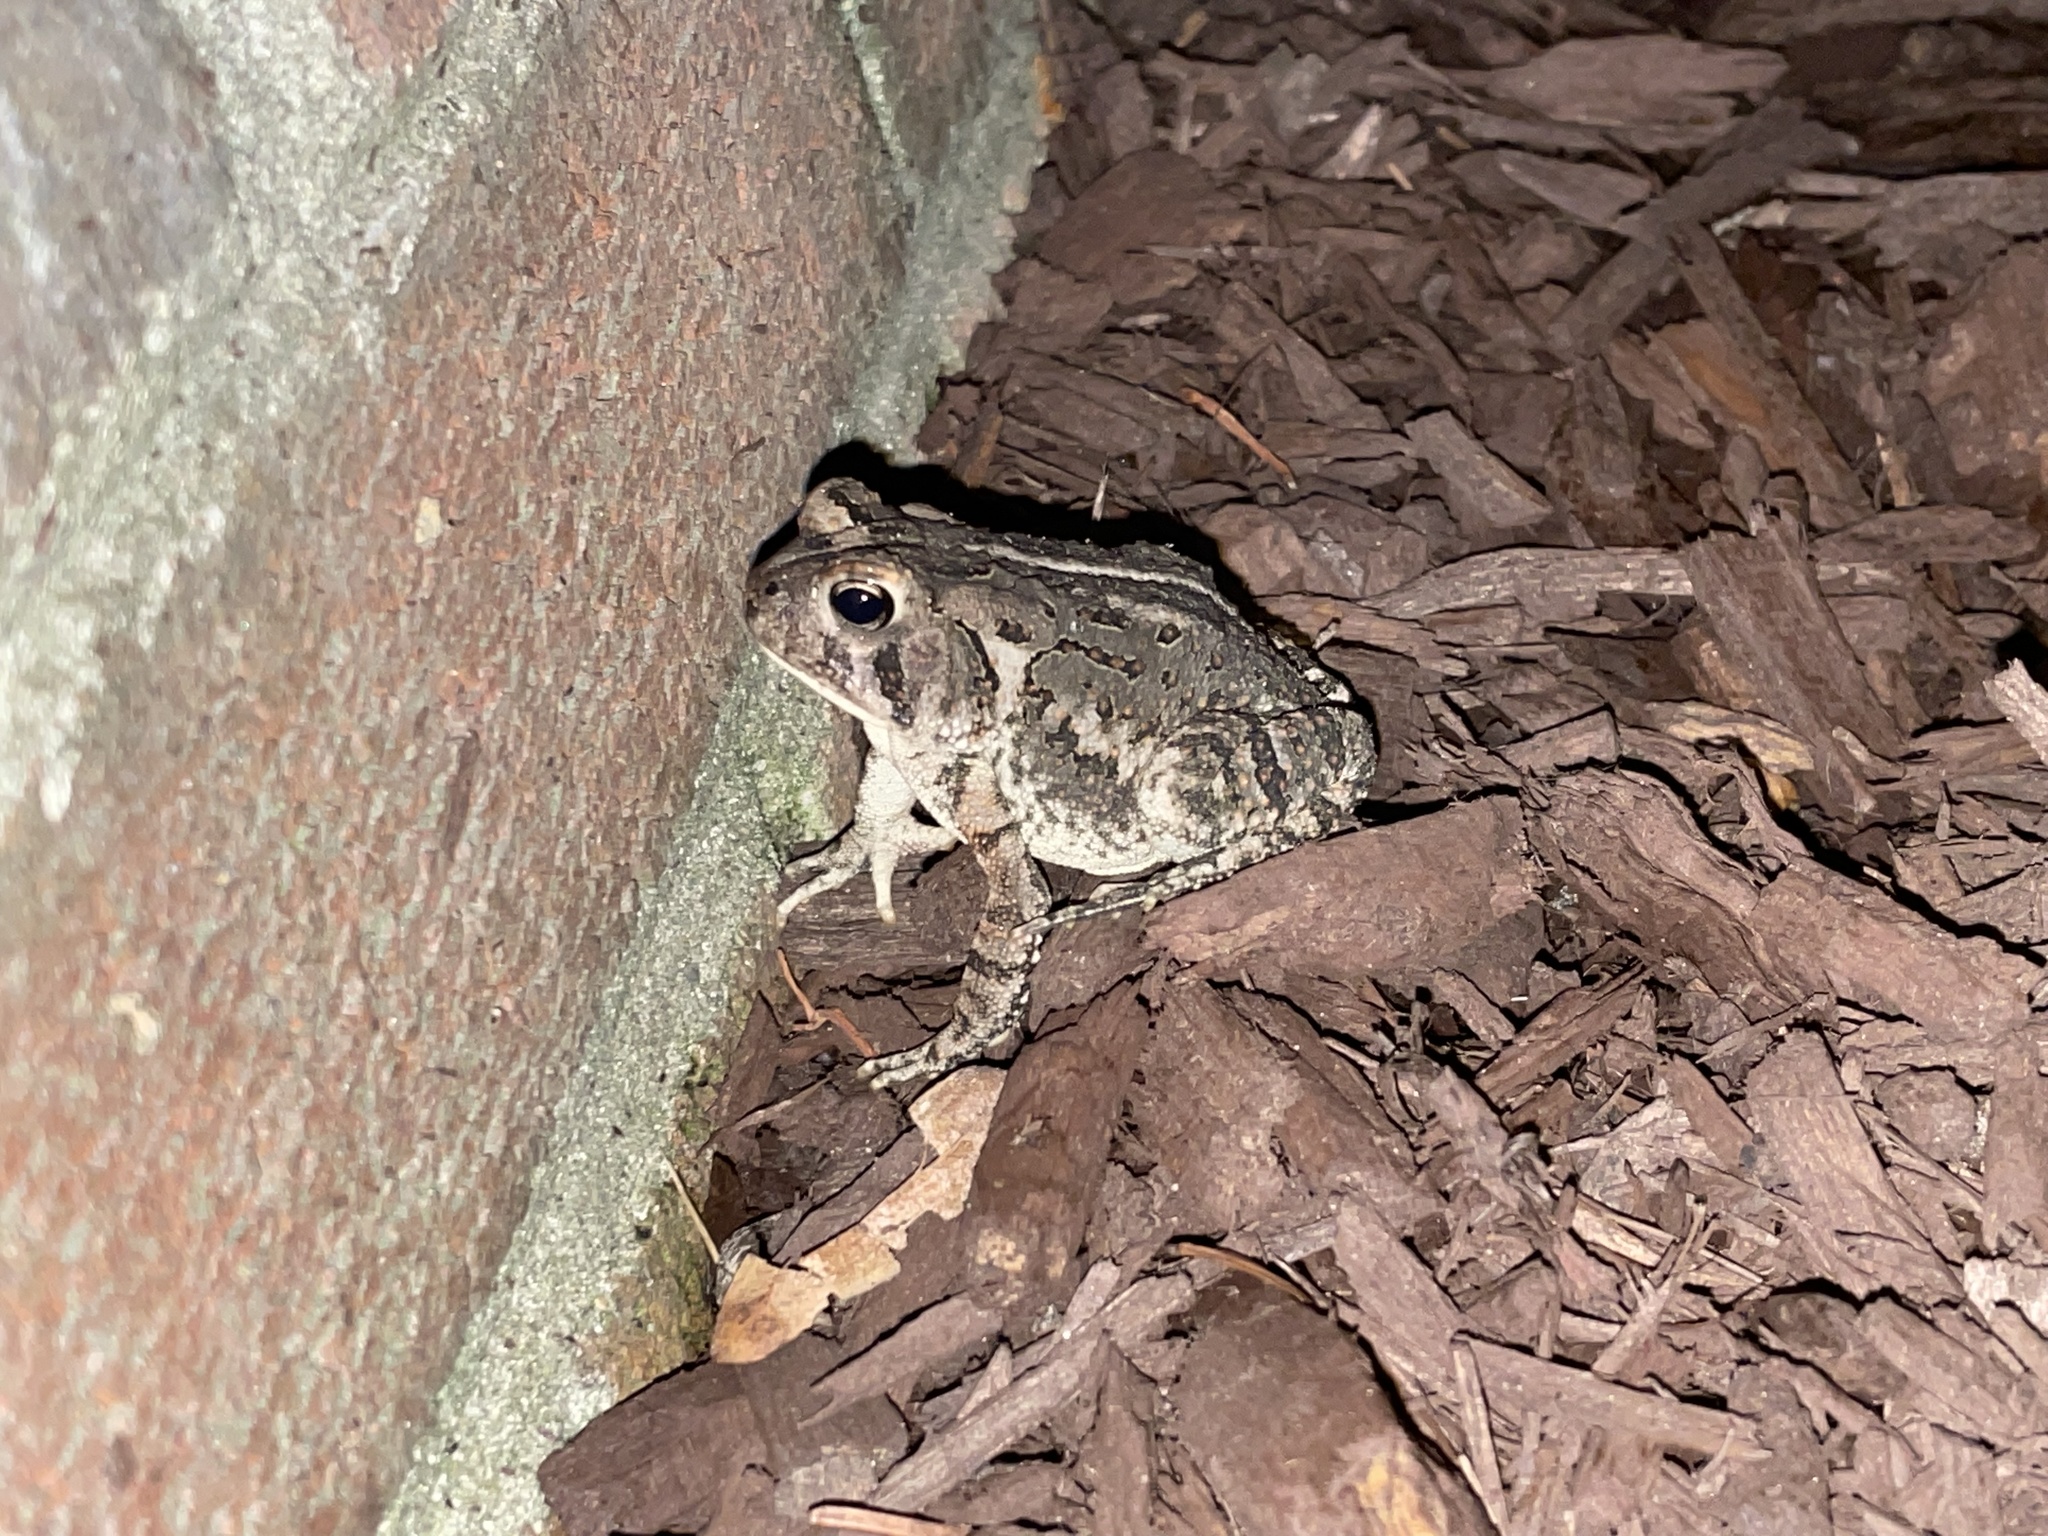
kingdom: Animalia
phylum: Chordata
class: Amphibia
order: Anura
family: Bufonidae
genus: Anaxyrus
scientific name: Anaxyrus fowleri
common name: Fowler's toad
